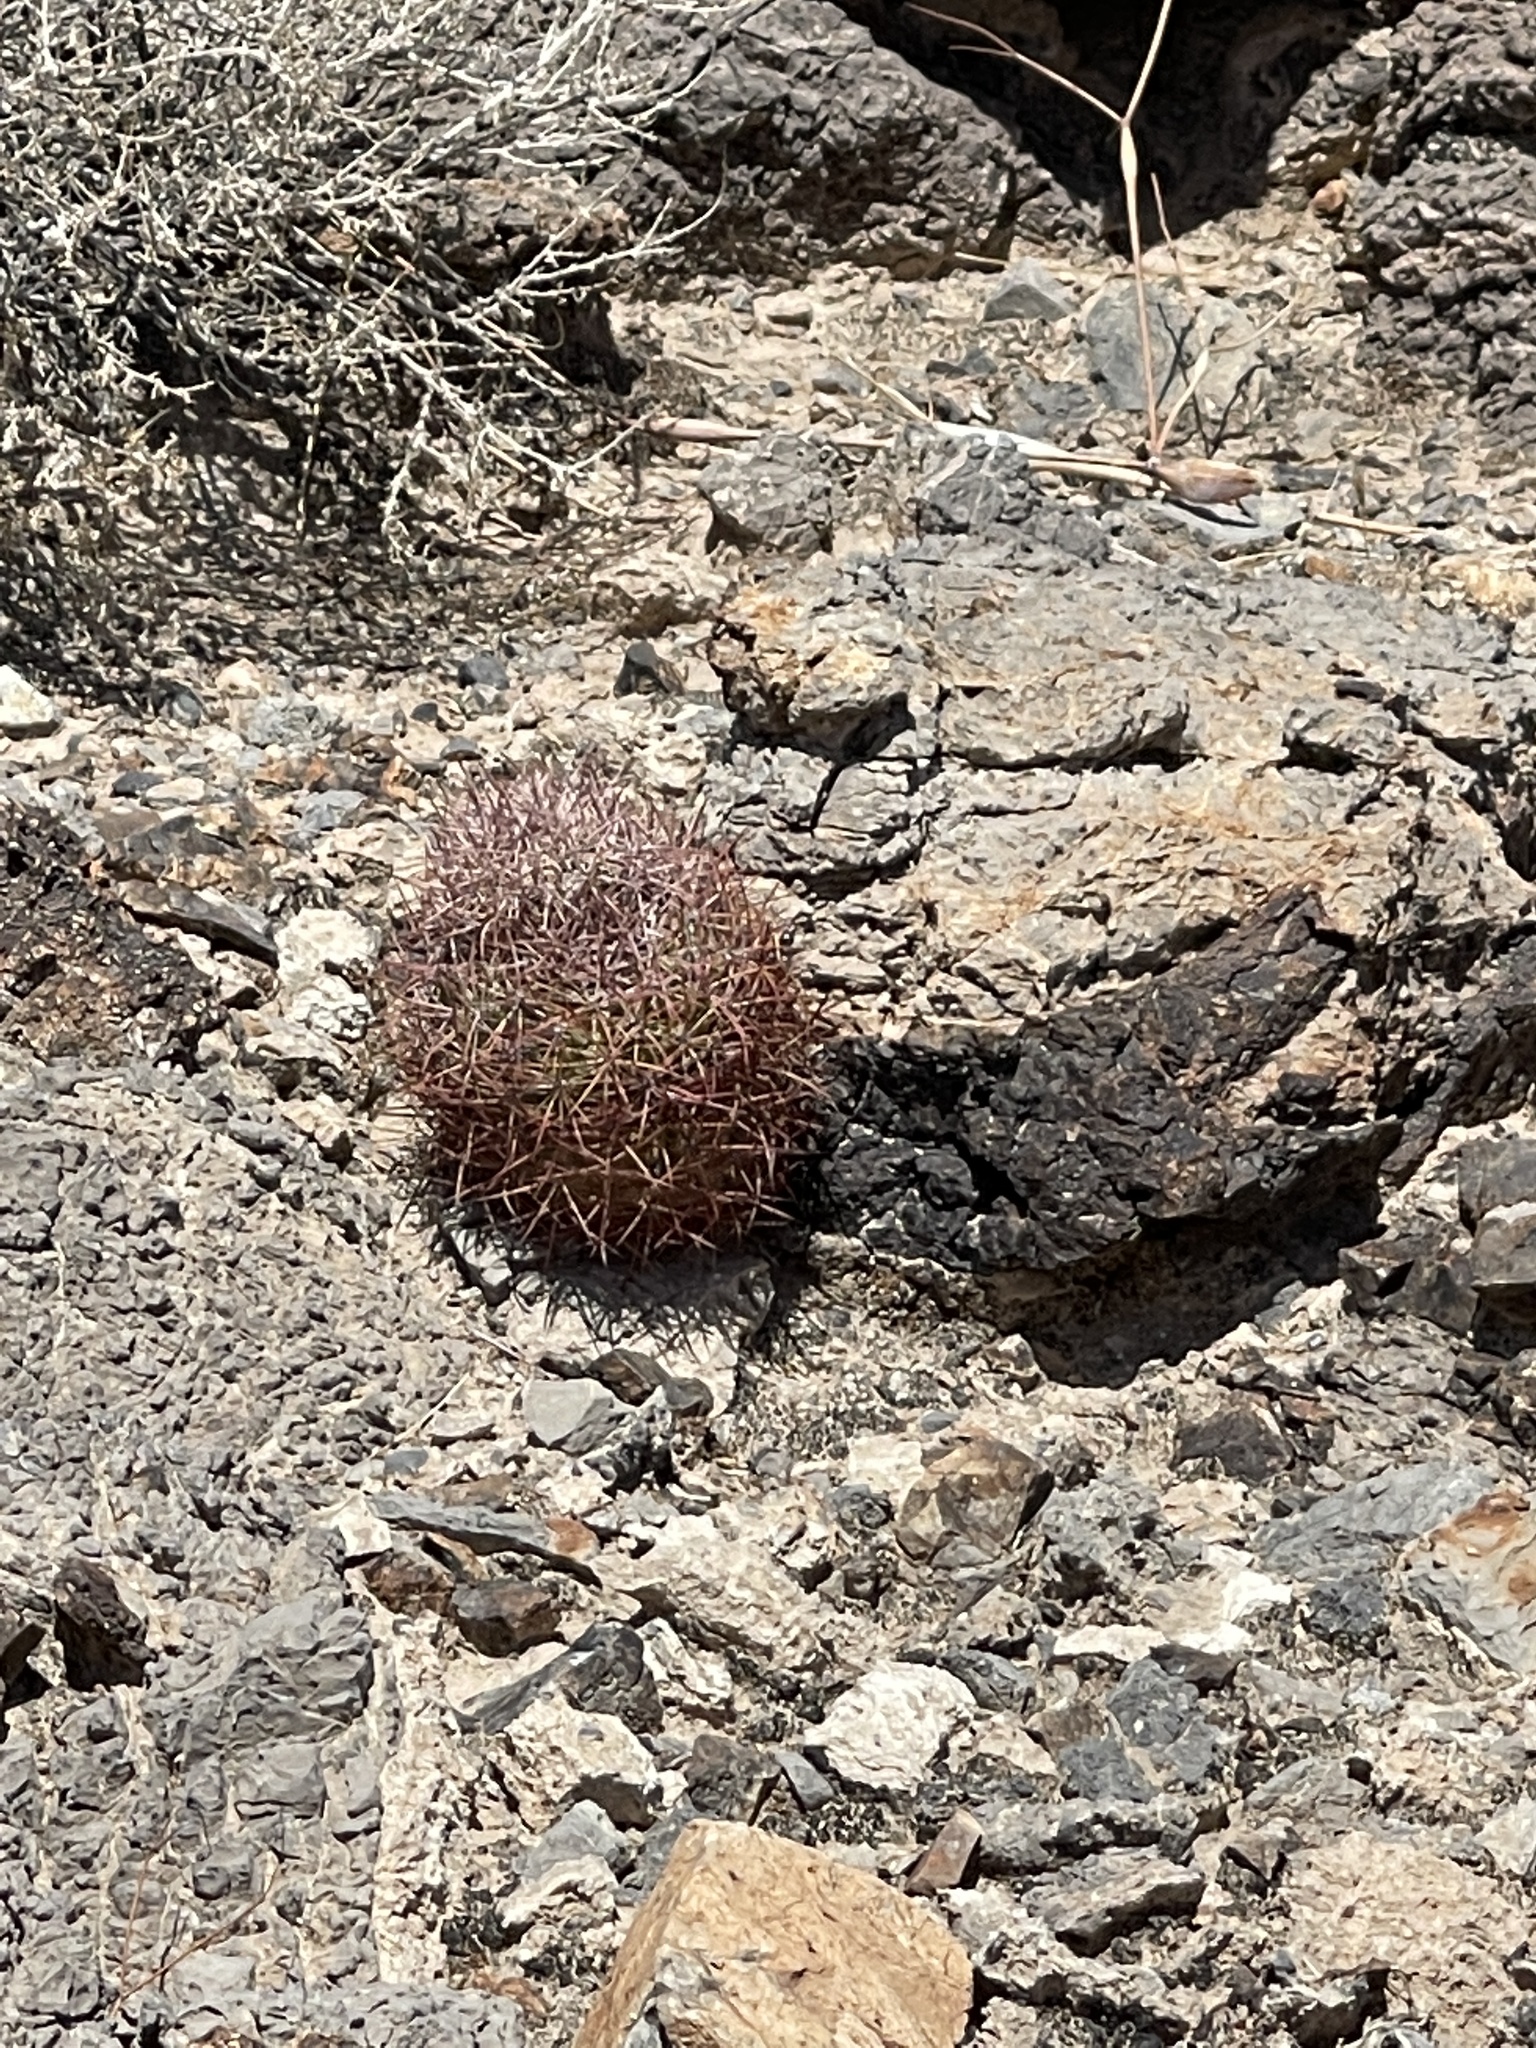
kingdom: Plantae
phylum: Tracheophyta
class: Magnoliopsida
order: Caryophyllales
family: Cactaceae
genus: Sclerocactus
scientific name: Sclerocactus johnsonii
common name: Eight-spine fishhook cactus
